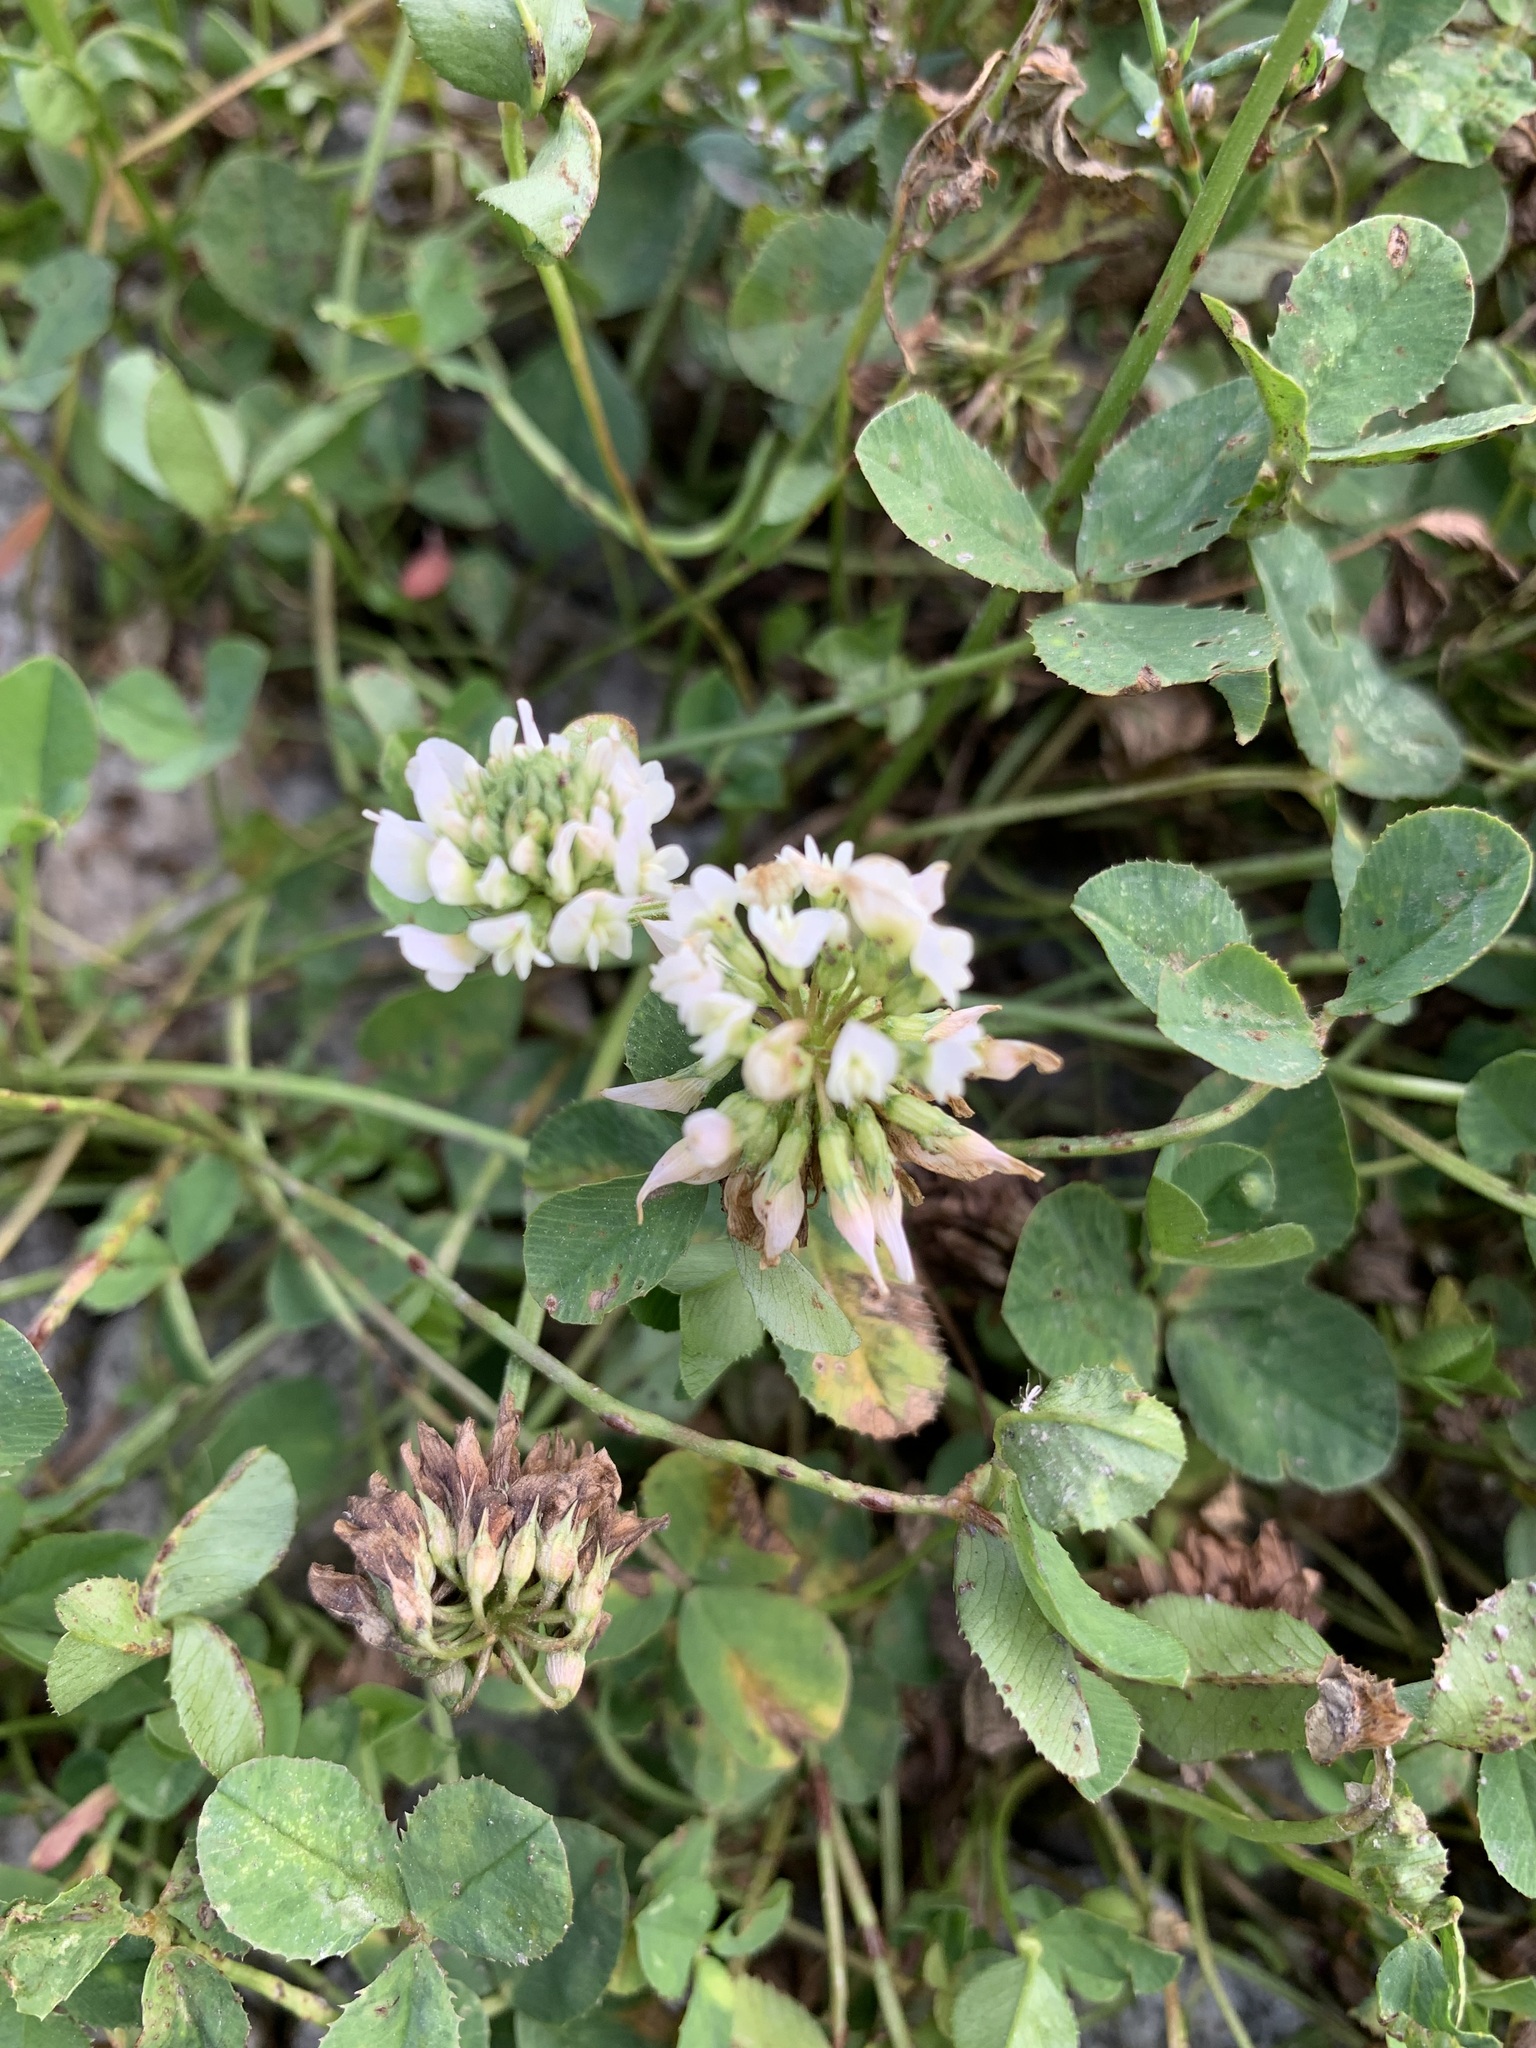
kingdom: Plantae
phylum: Tracheophyta
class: Magnoliopsida
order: Fabales
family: Fabaceae
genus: Trifolium
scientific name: Trifolium repens
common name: White clover
